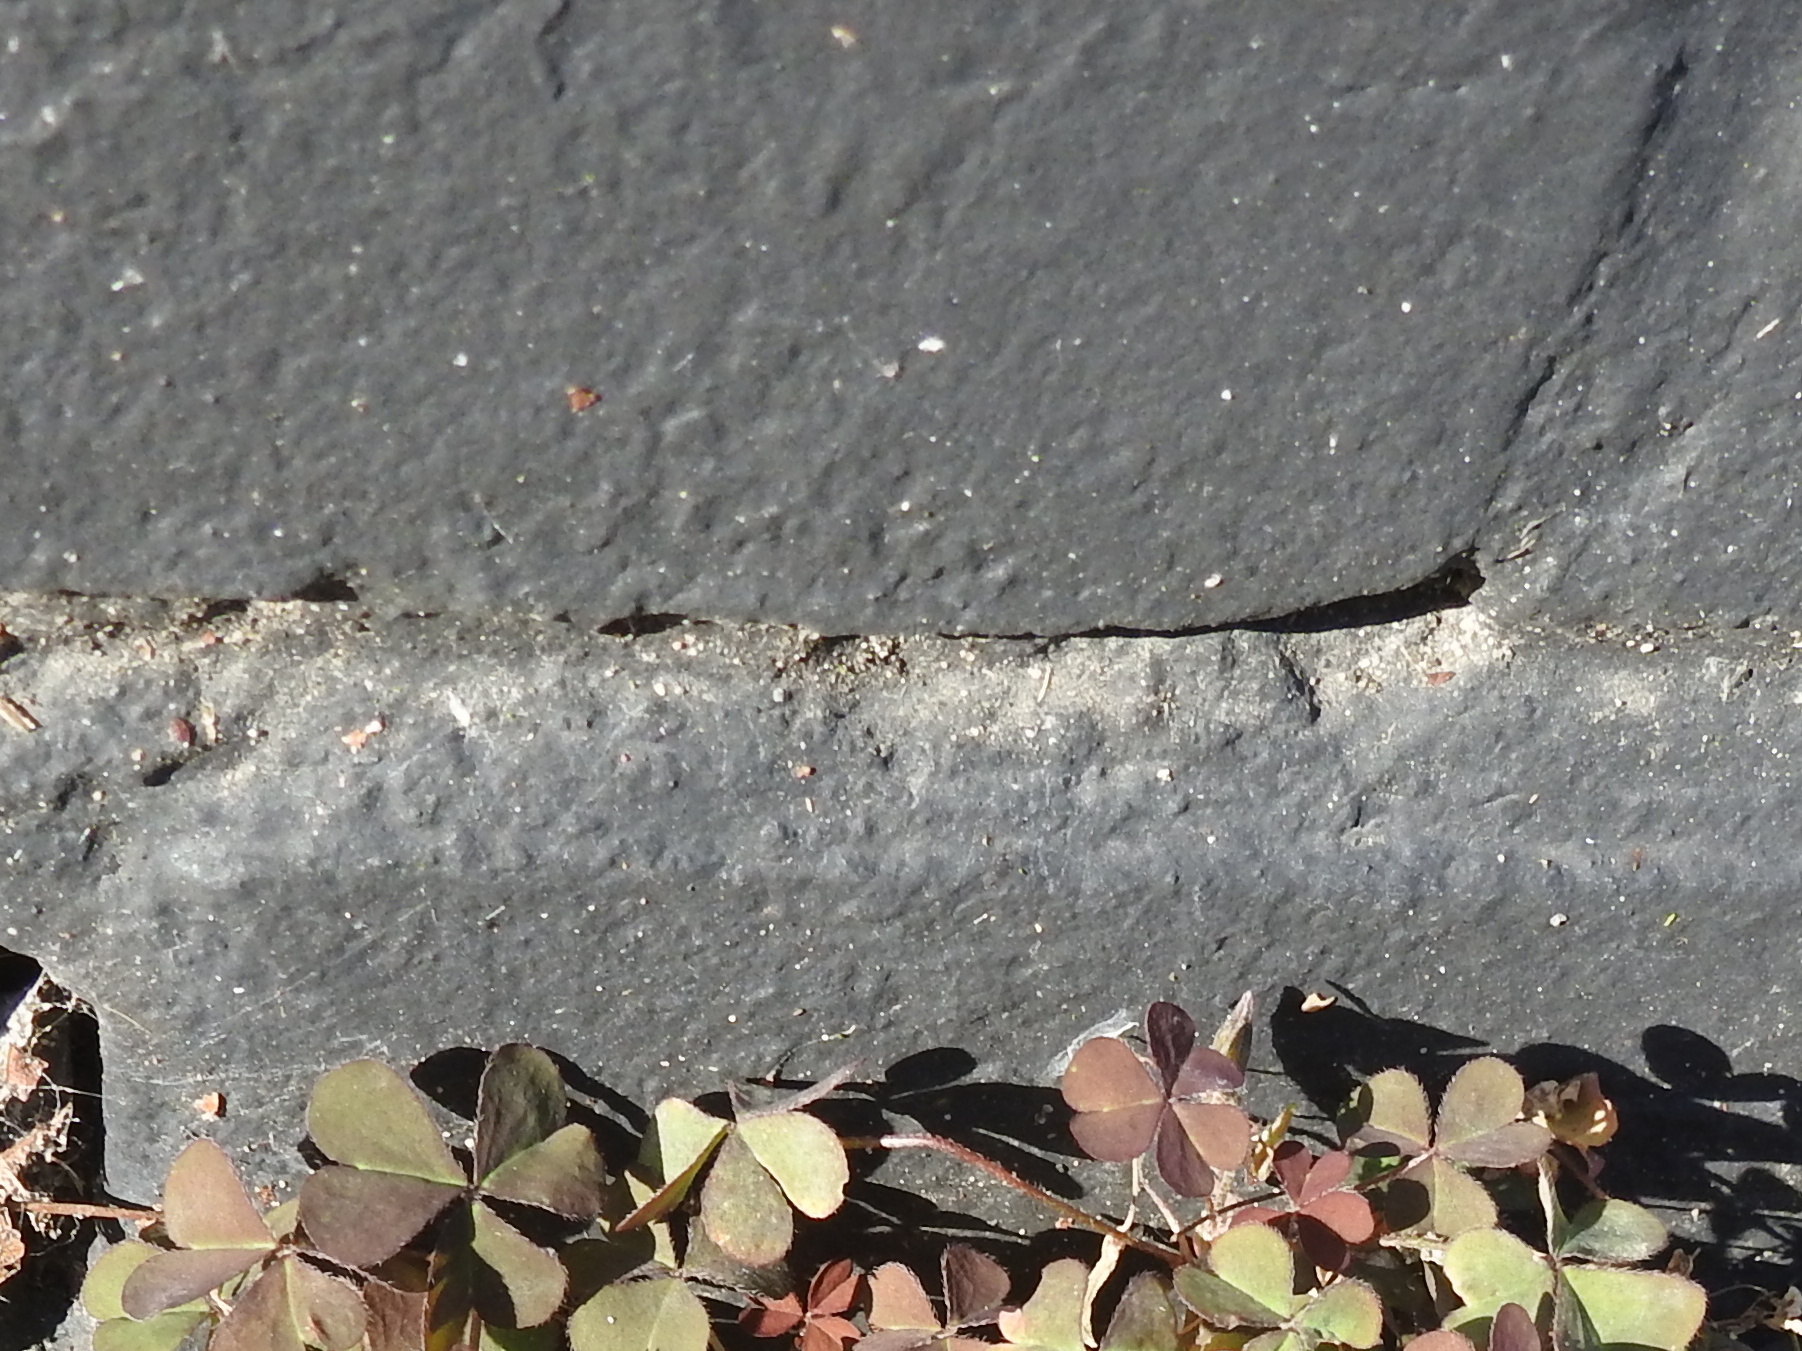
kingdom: Plantae
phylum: Tracheophyta
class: Magnoliopsida
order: Oxalidales
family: Oxalidaceae
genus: Oxalis
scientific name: Oxalis corniculata
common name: Procumbent yellow-sorrel
